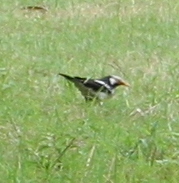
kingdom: Animalia
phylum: Chordata
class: Aves
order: Passeriformes
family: Sturnidae
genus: Gracupica
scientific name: Gracupica nigricollis
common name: Black-collared starling
